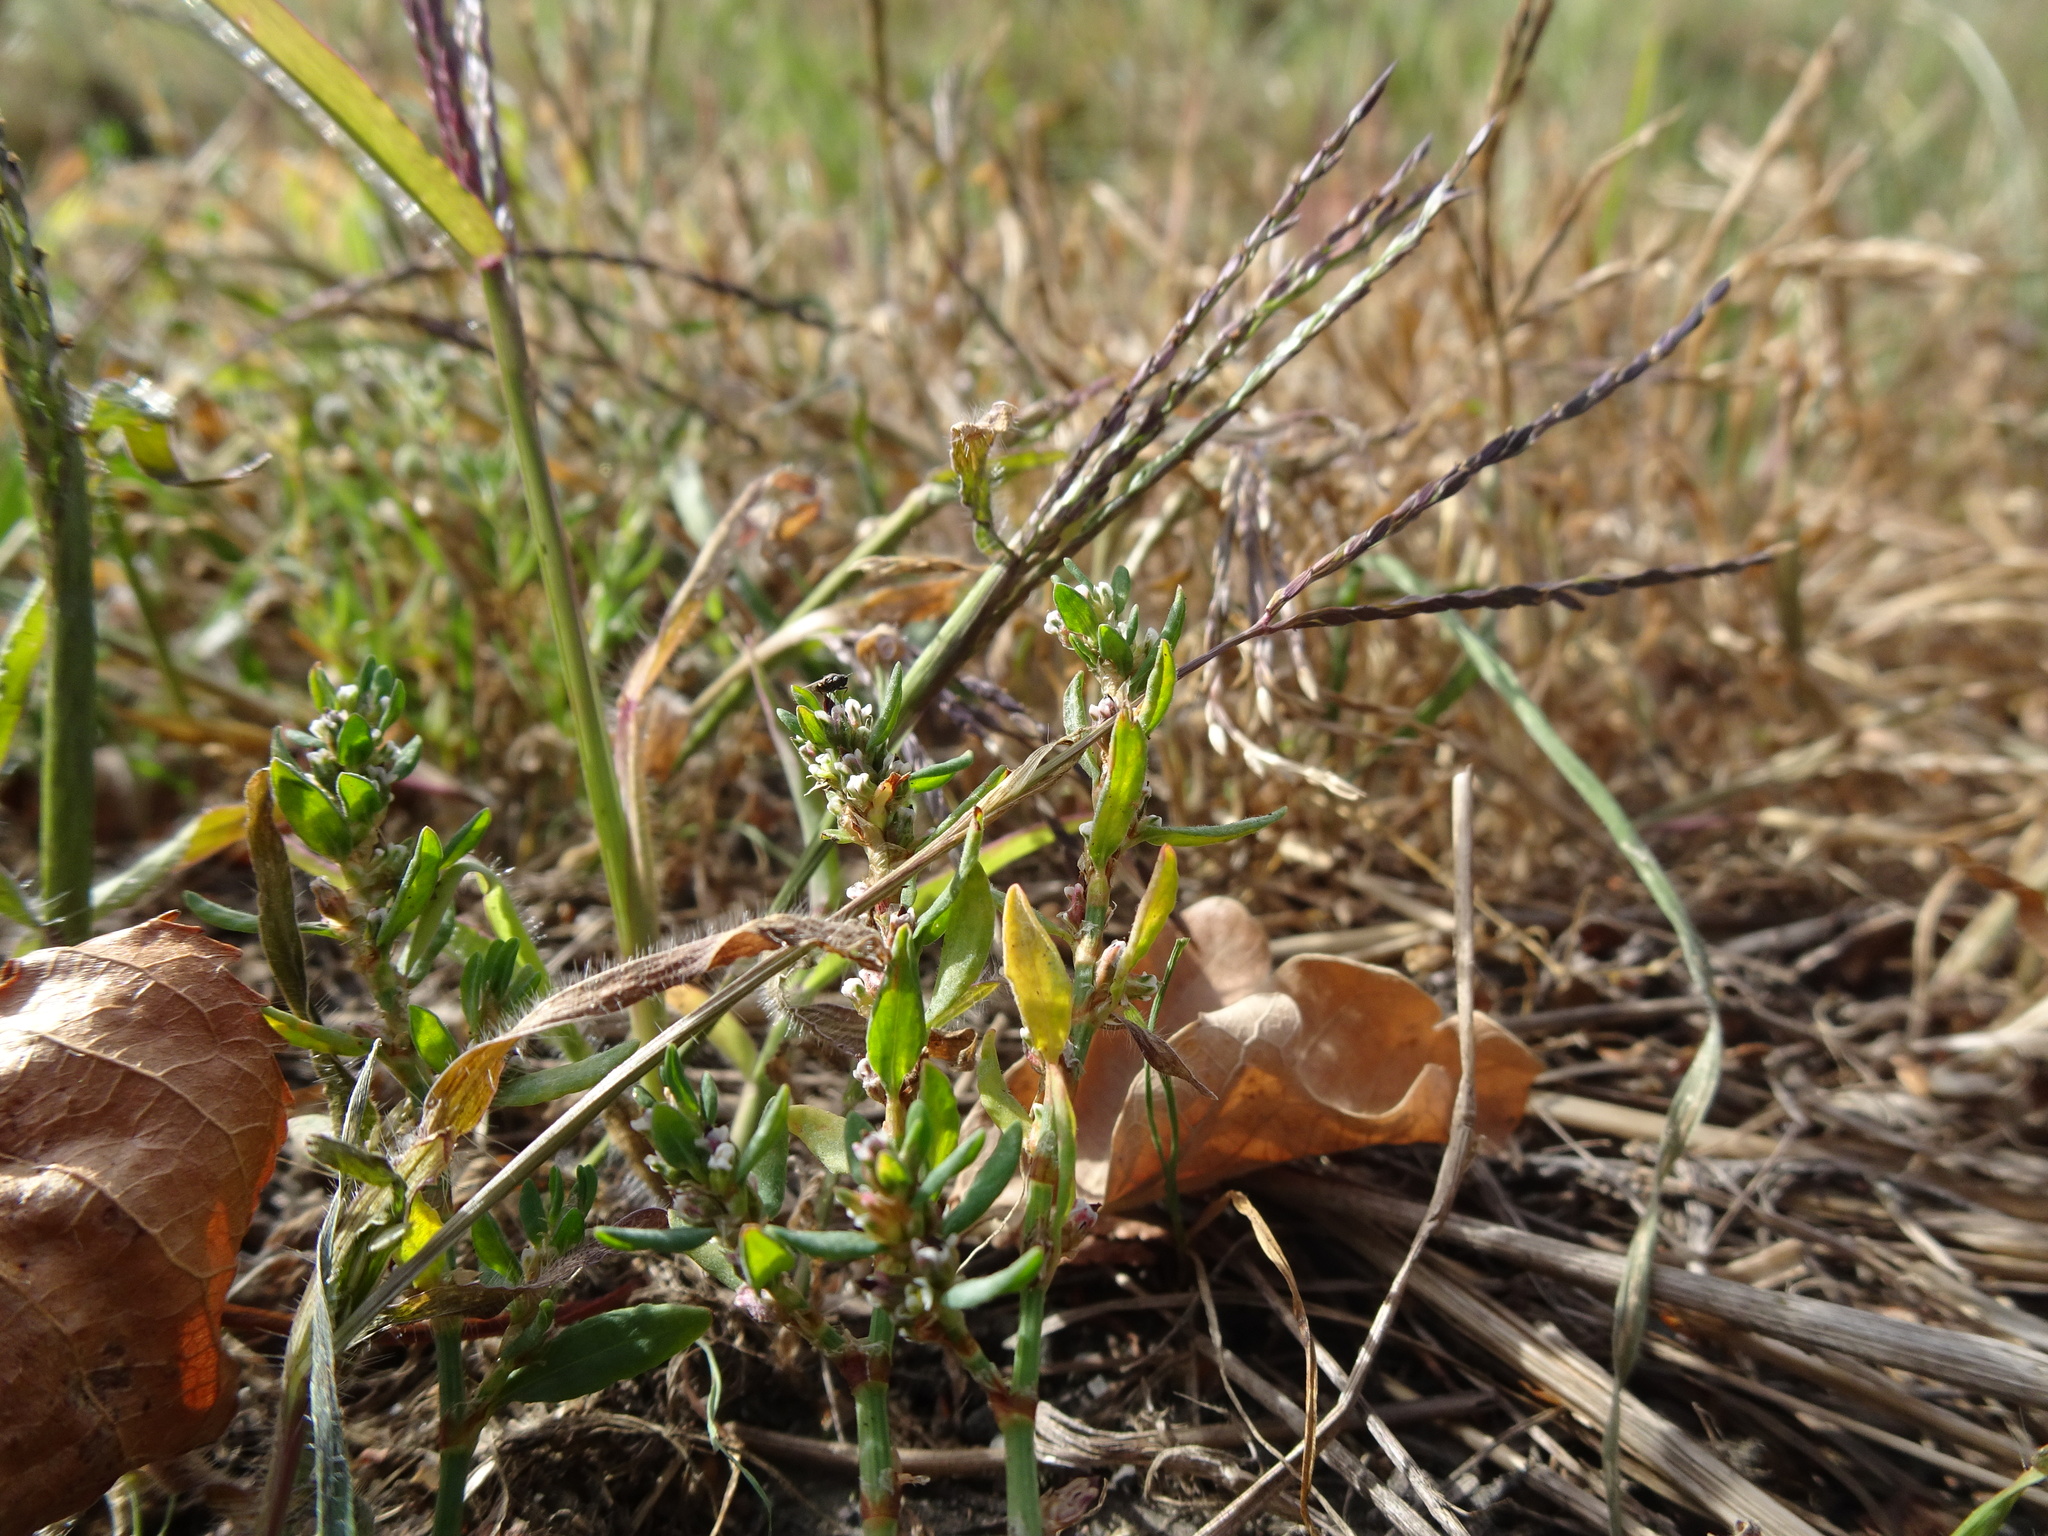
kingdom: Plantae
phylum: Tracheophyta
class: Liliopsida
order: Poales
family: Poaceae
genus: Digitaria
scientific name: Digitaria sanguinalis
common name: Hairy crabgrass
